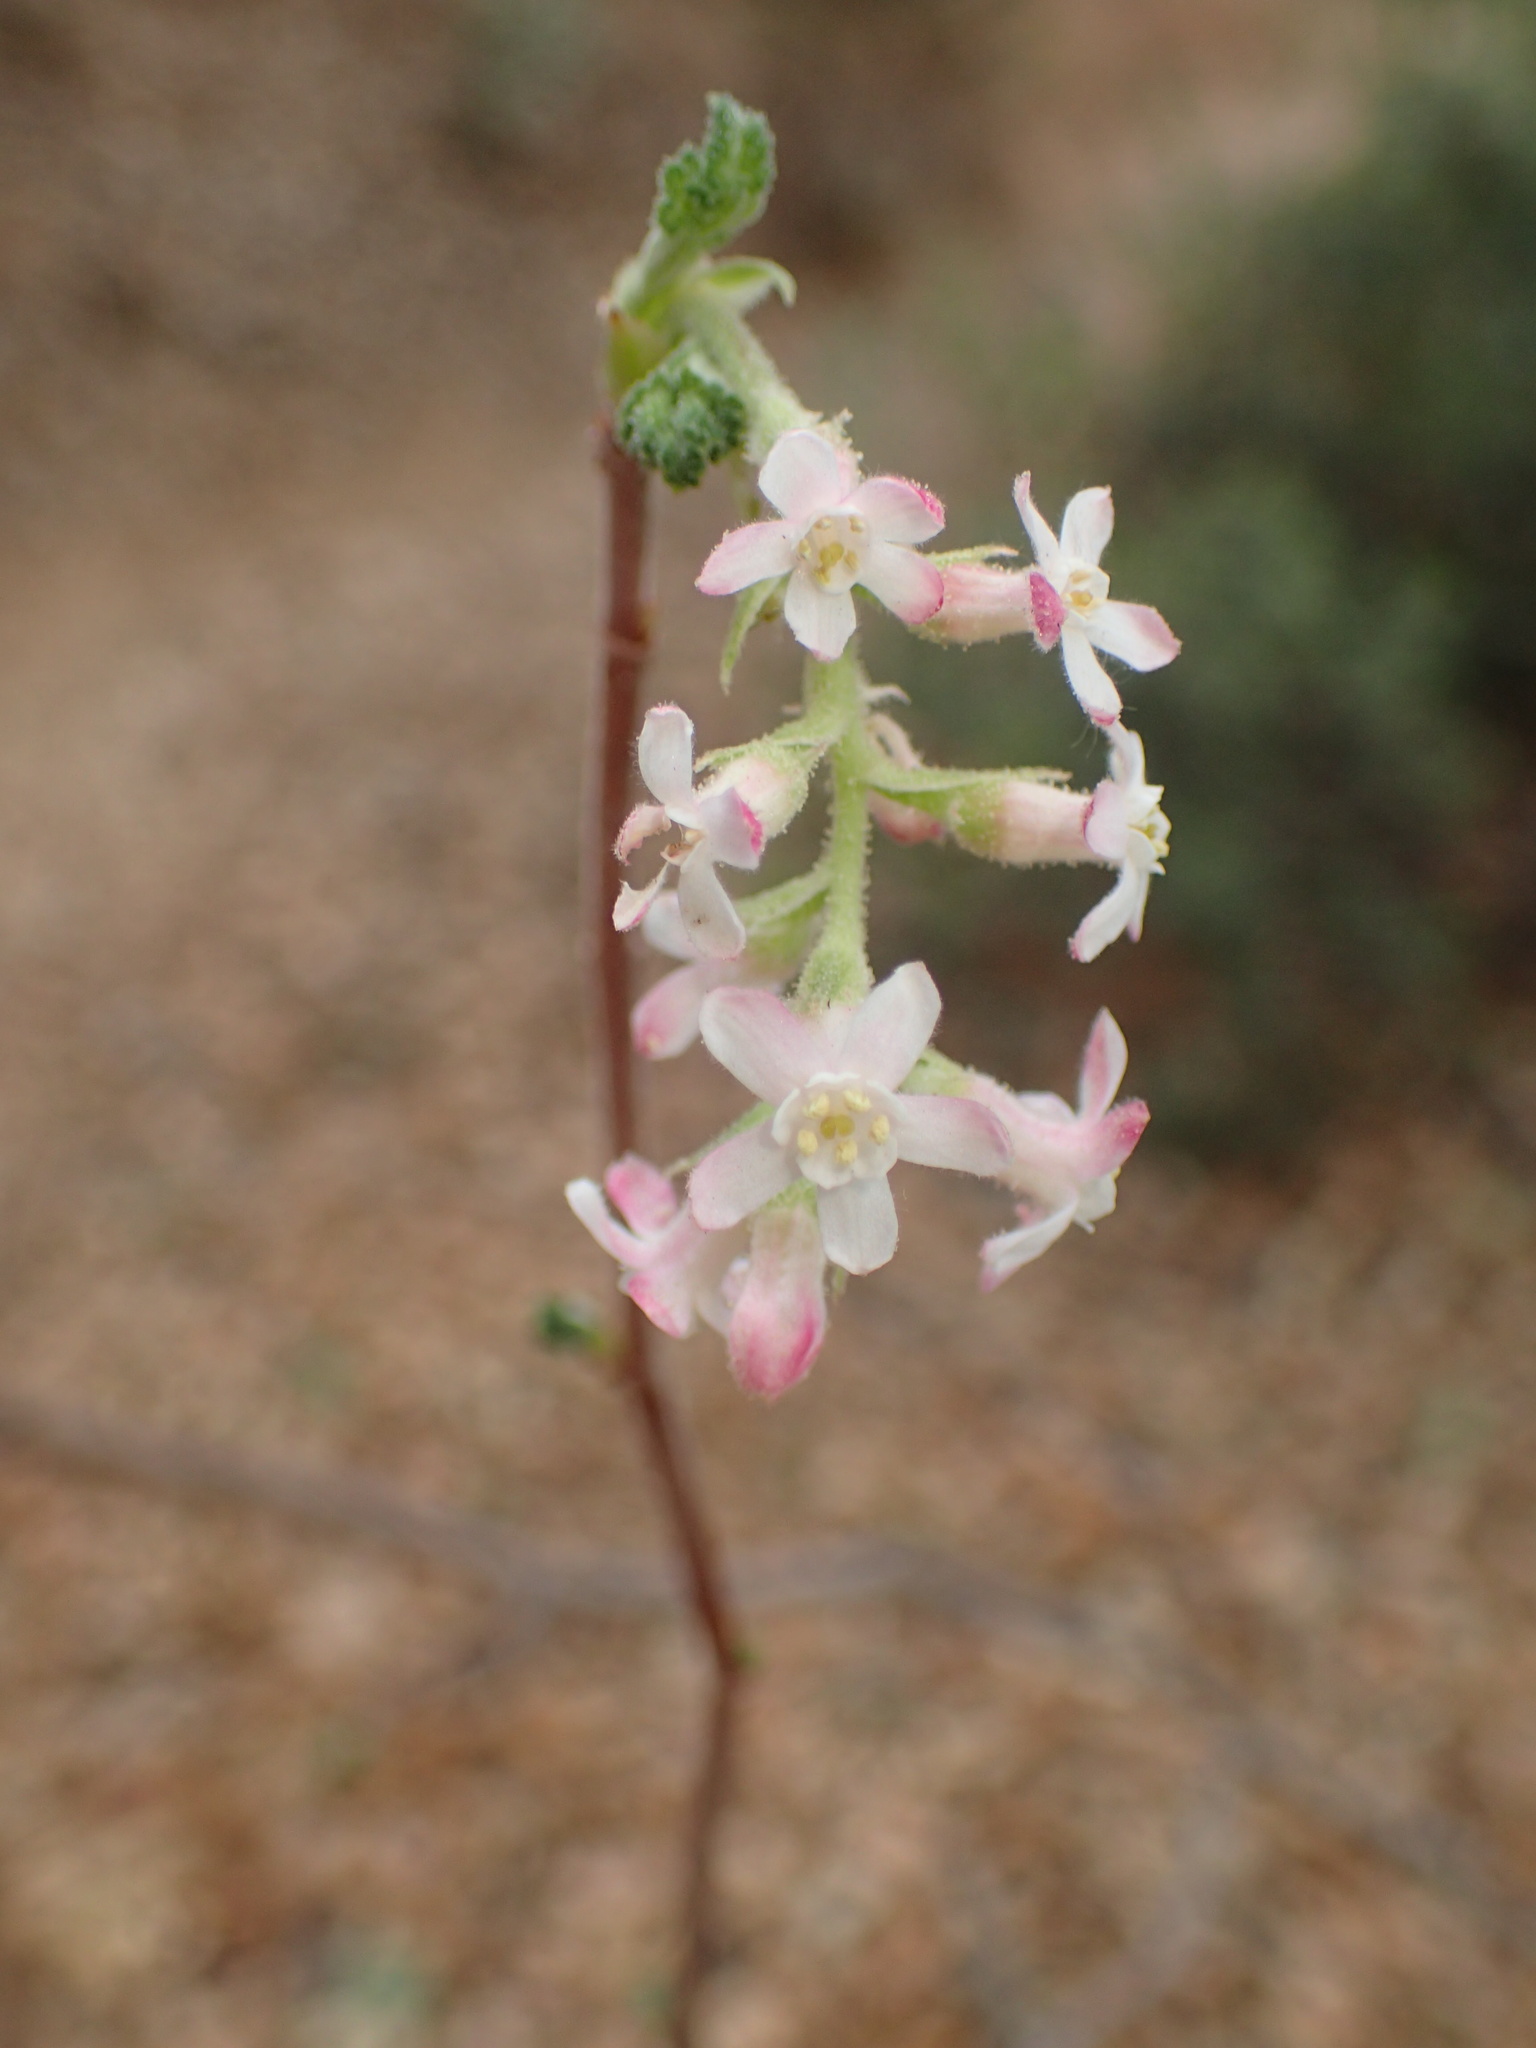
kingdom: Plantae
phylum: Tracheophyta
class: Magnoliopsida
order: Saxifragales
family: Grossulariaceae
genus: Ribes
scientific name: Ribes malvaceum
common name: Chaparral currant
